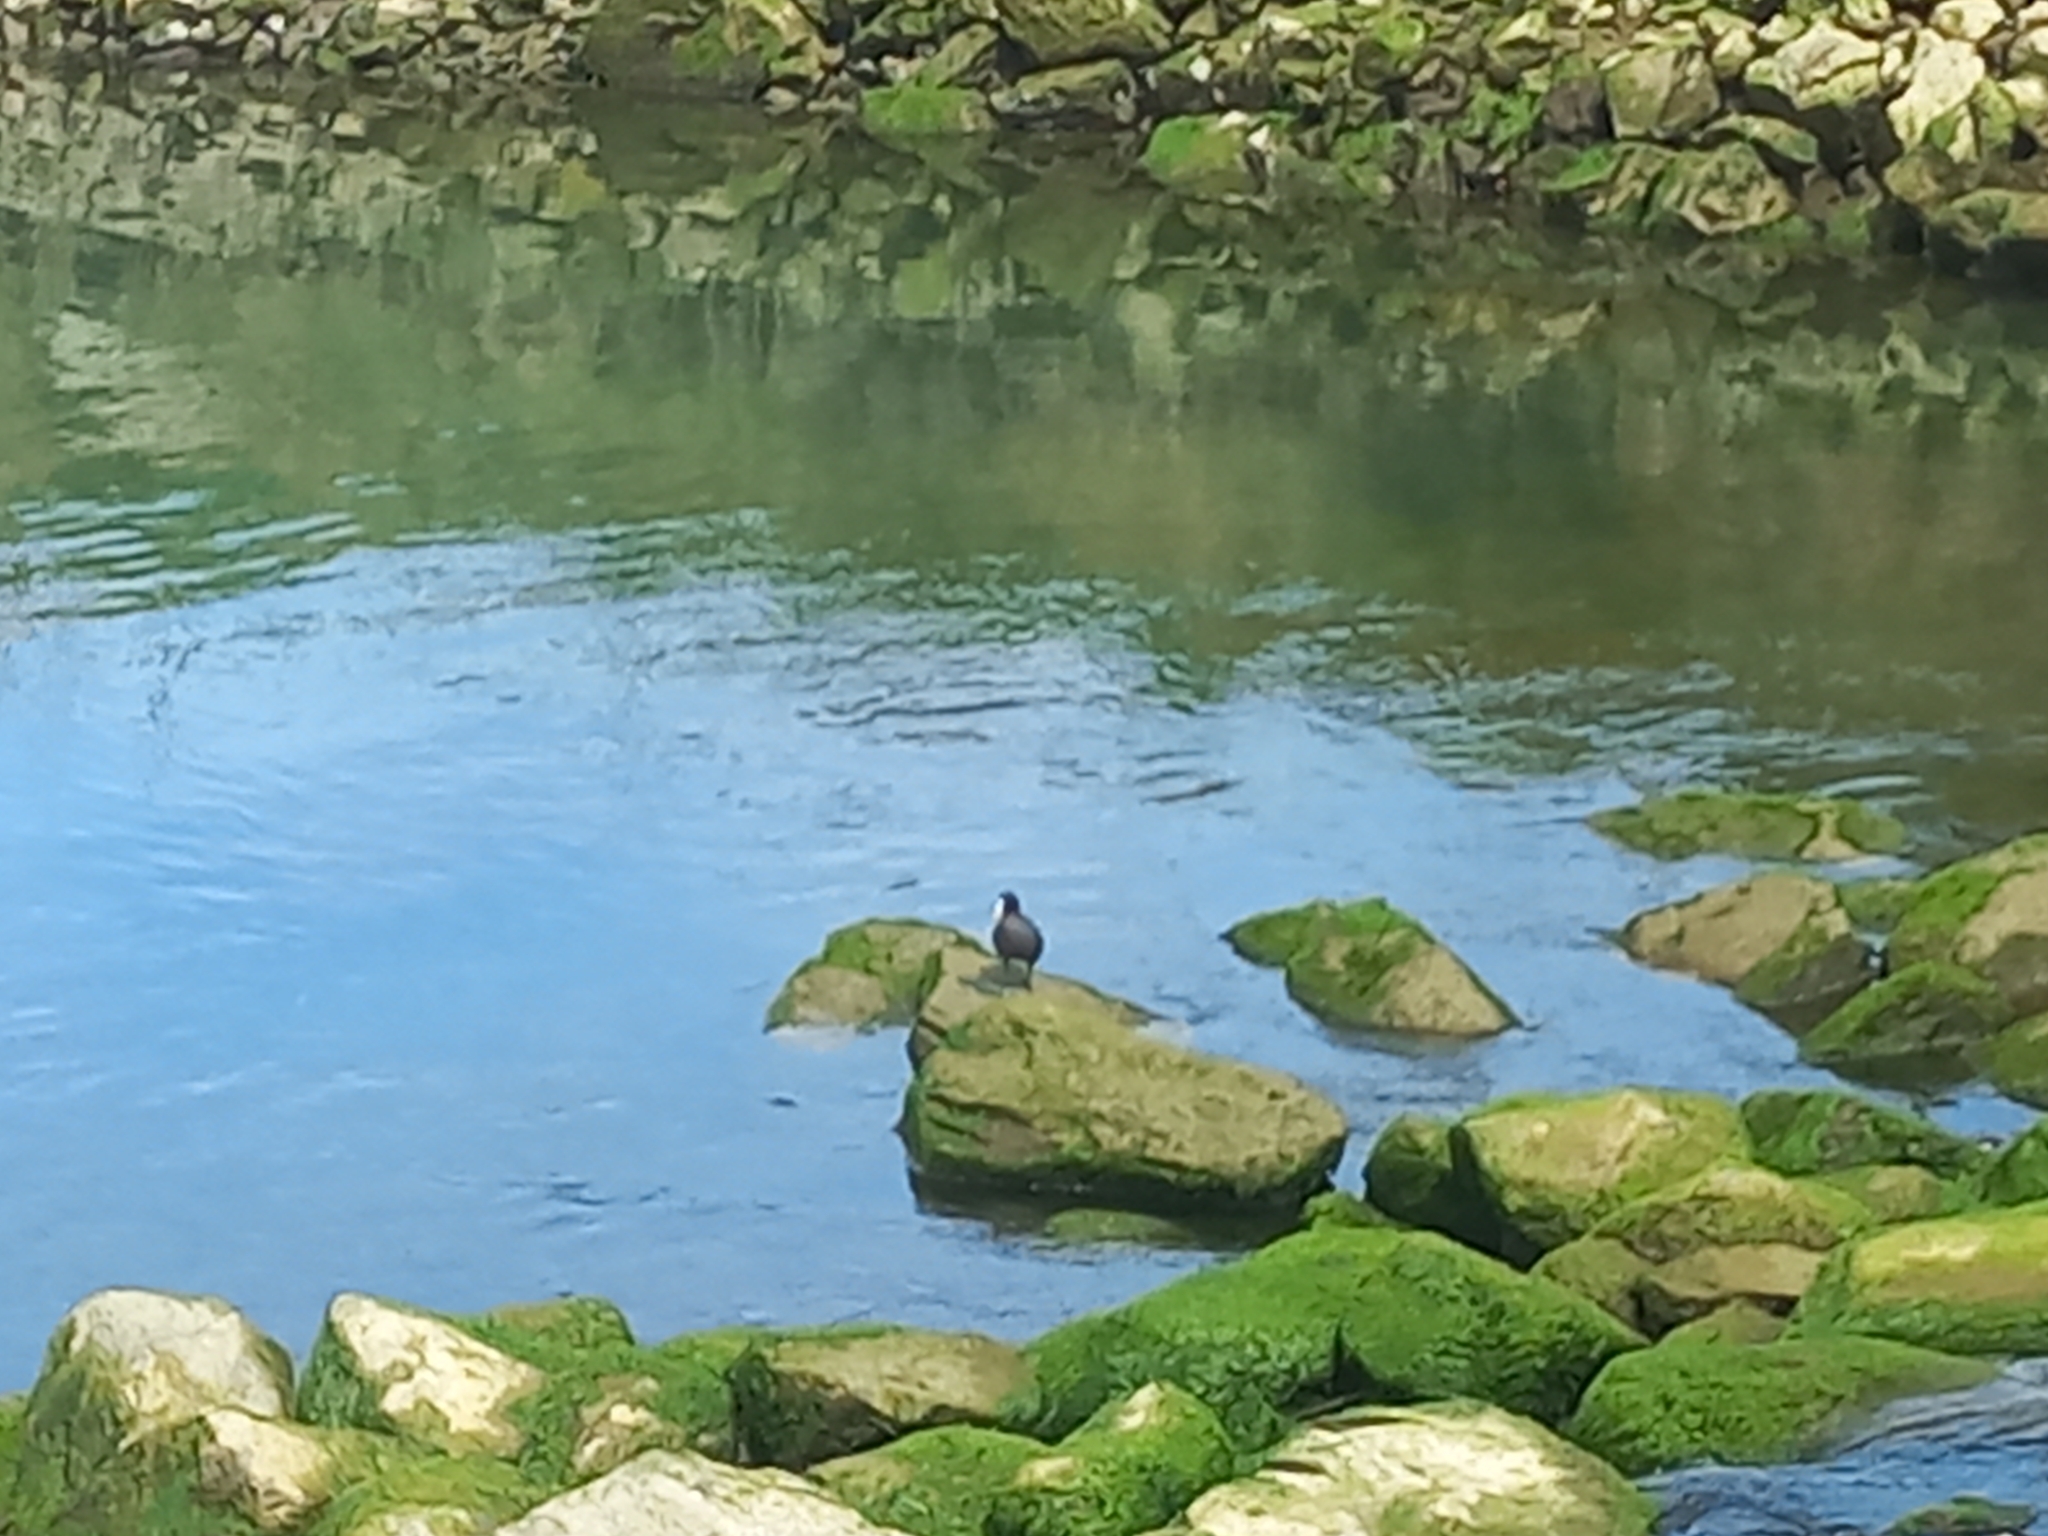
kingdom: Animalia
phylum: Chordata
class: Aves
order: Gruiformes
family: Rallidae
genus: Fulica
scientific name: Fulica atra
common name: Eurasian coot
